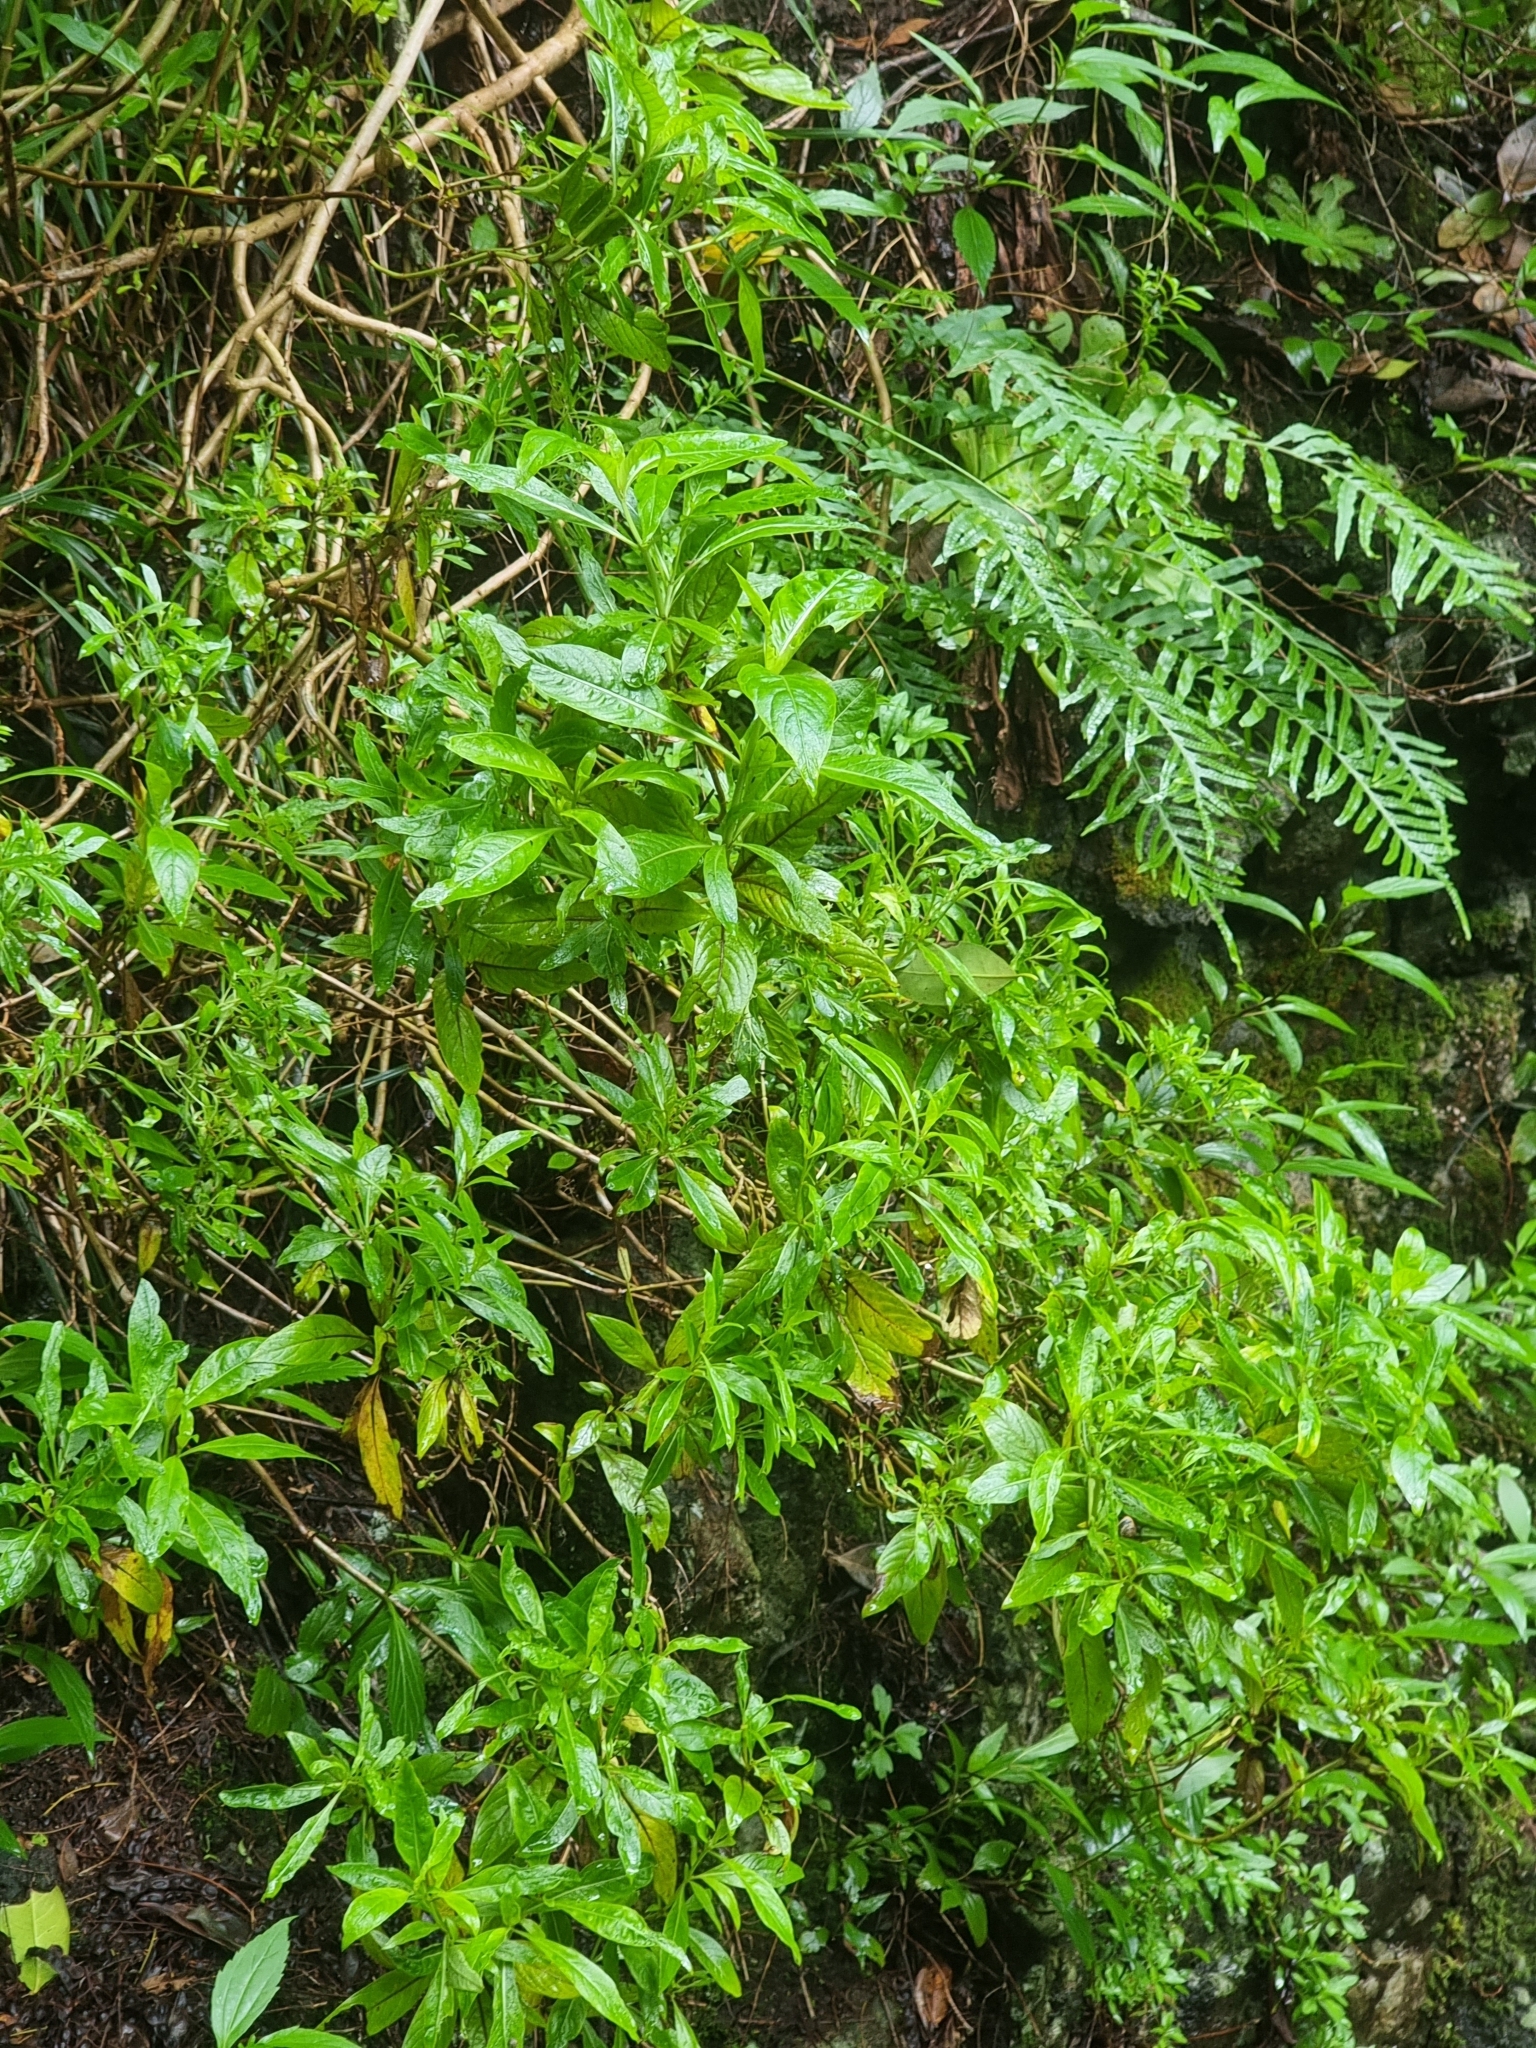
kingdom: Plantae
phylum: Tracheophyta
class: Magnoliopsida
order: Gentianales
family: Rubiaceae
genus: Phyllis
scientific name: Phyllis nobla
